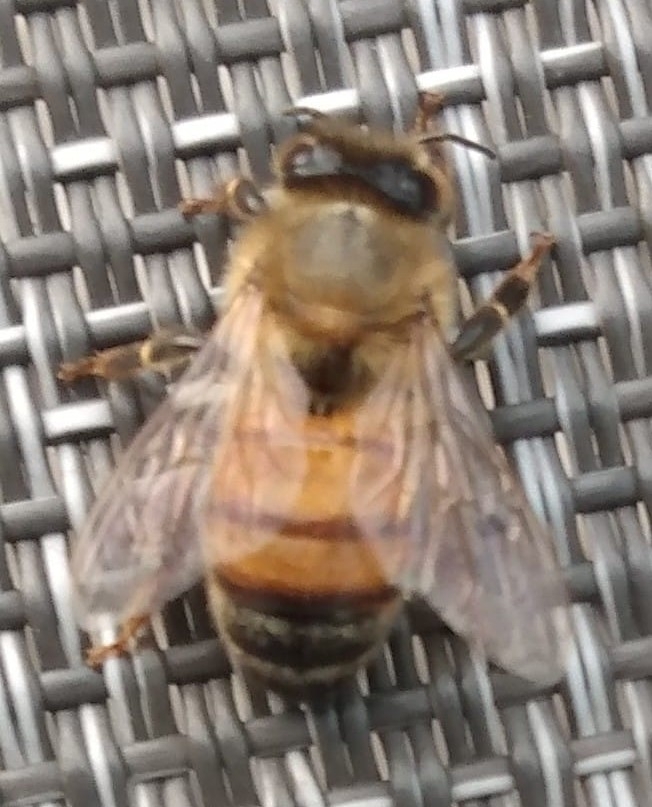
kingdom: Animalia
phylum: Arthropoda
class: Insecta
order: Hymenoptera
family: Apidae
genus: Apis
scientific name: Apis mellifera
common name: Honey bee
